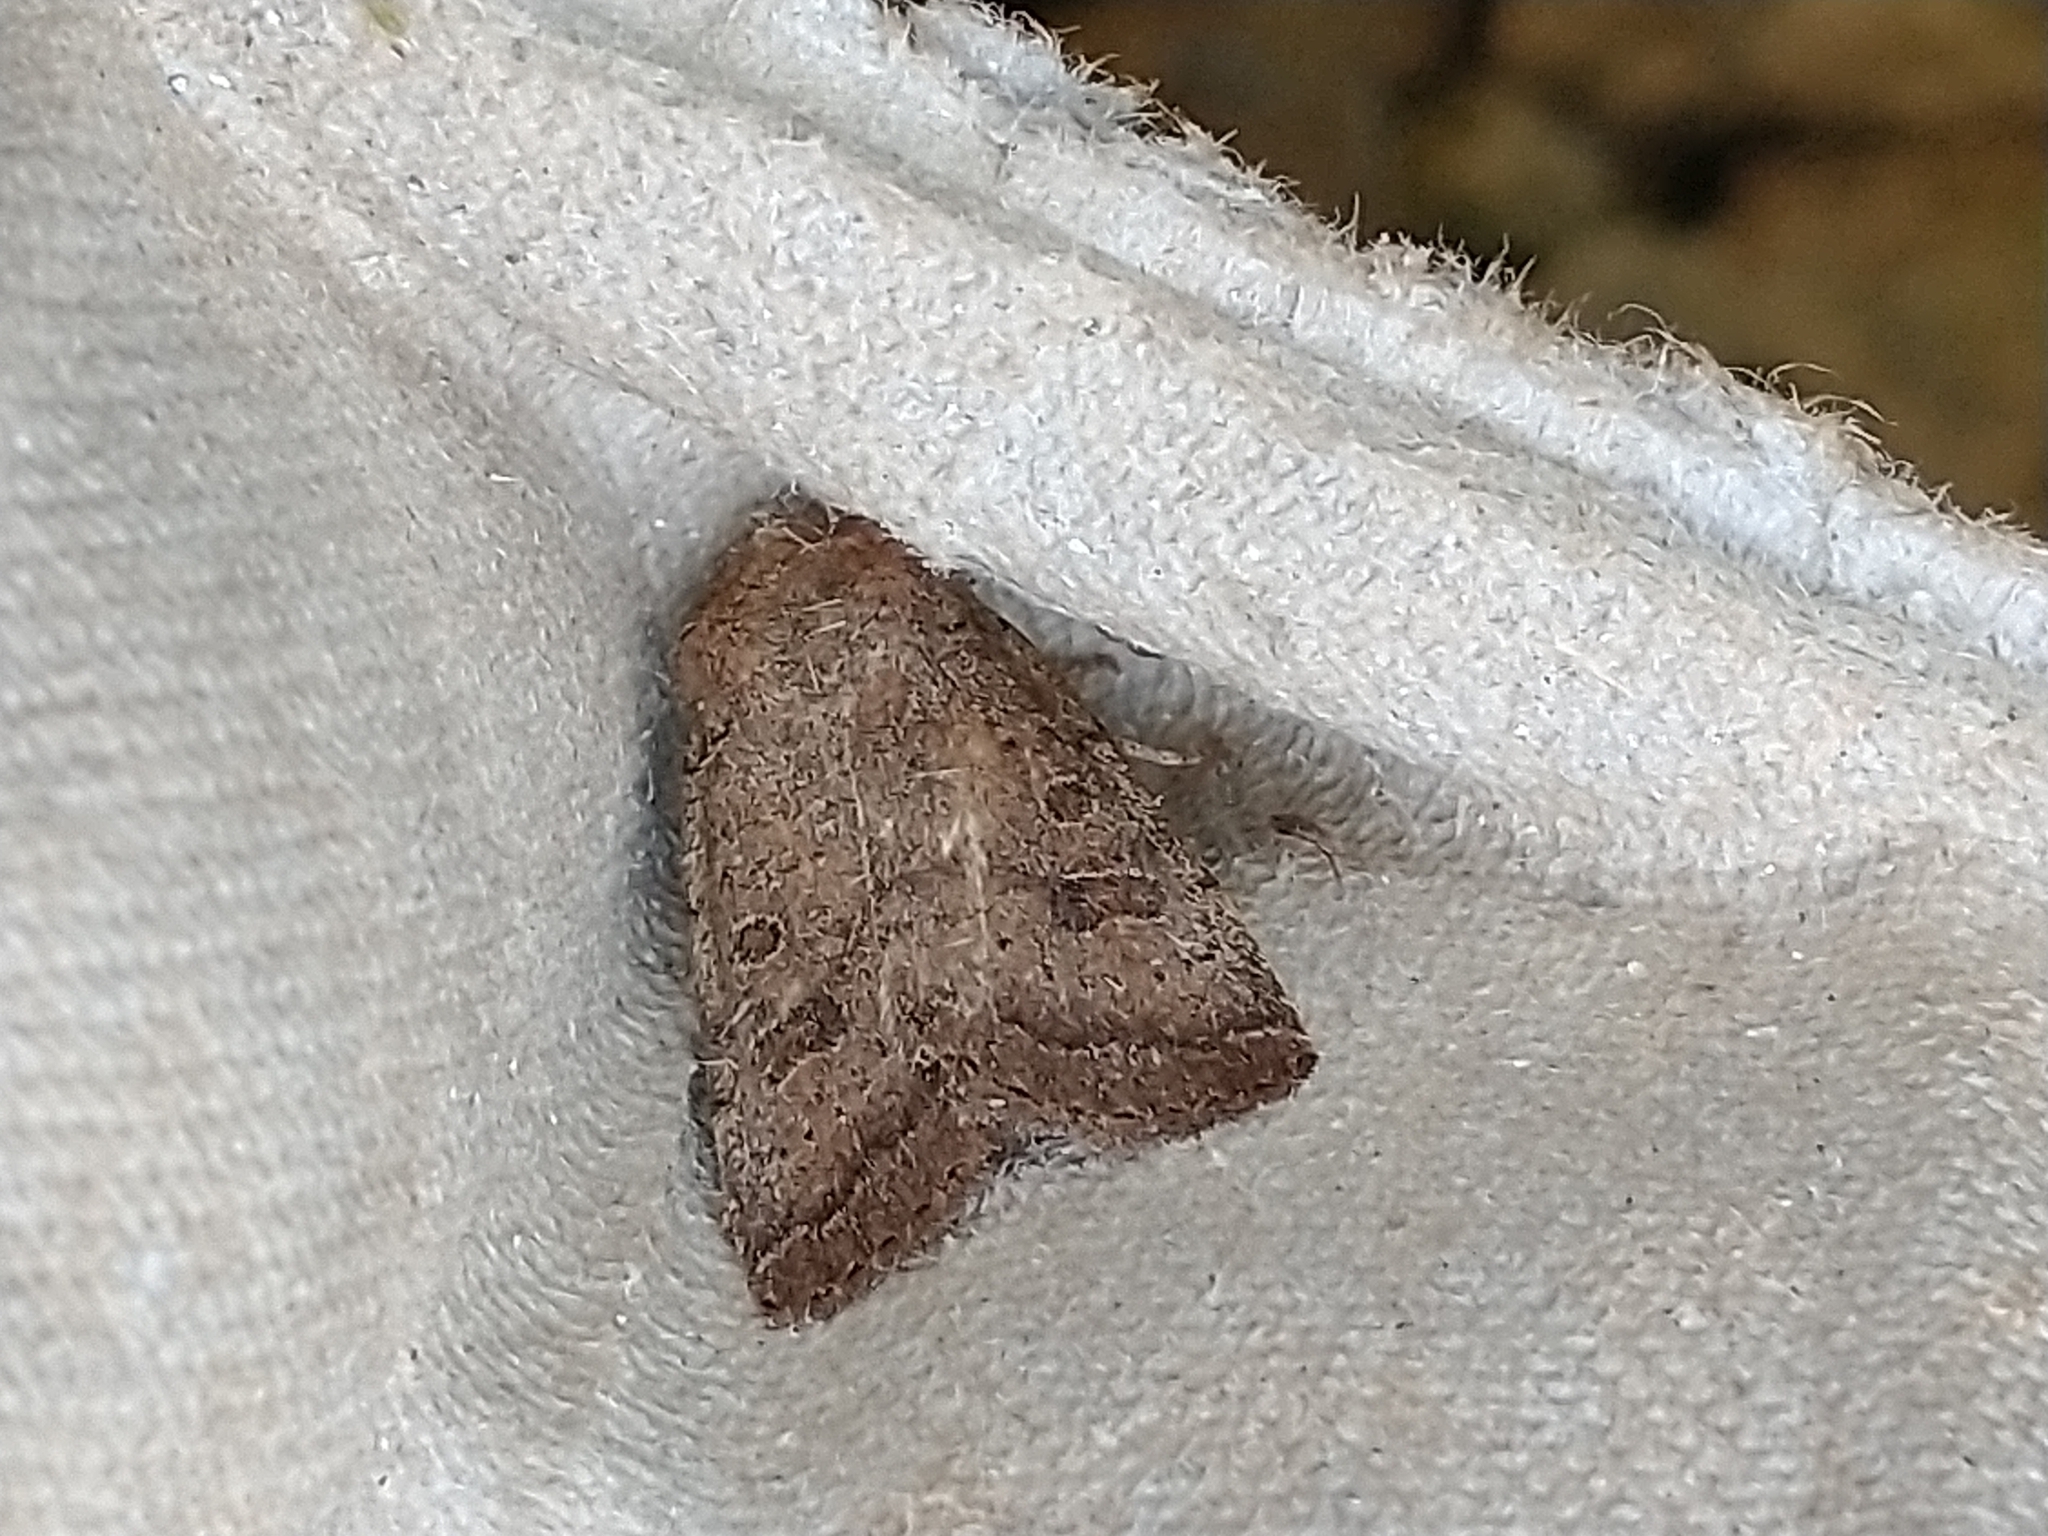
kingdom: Animalia
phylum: Arthropoda
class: Insecta
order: Lepidoptera
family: Noctuidae
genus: Hoplodrina
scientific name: Hoplodrina octogenaria
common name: Uncertain
